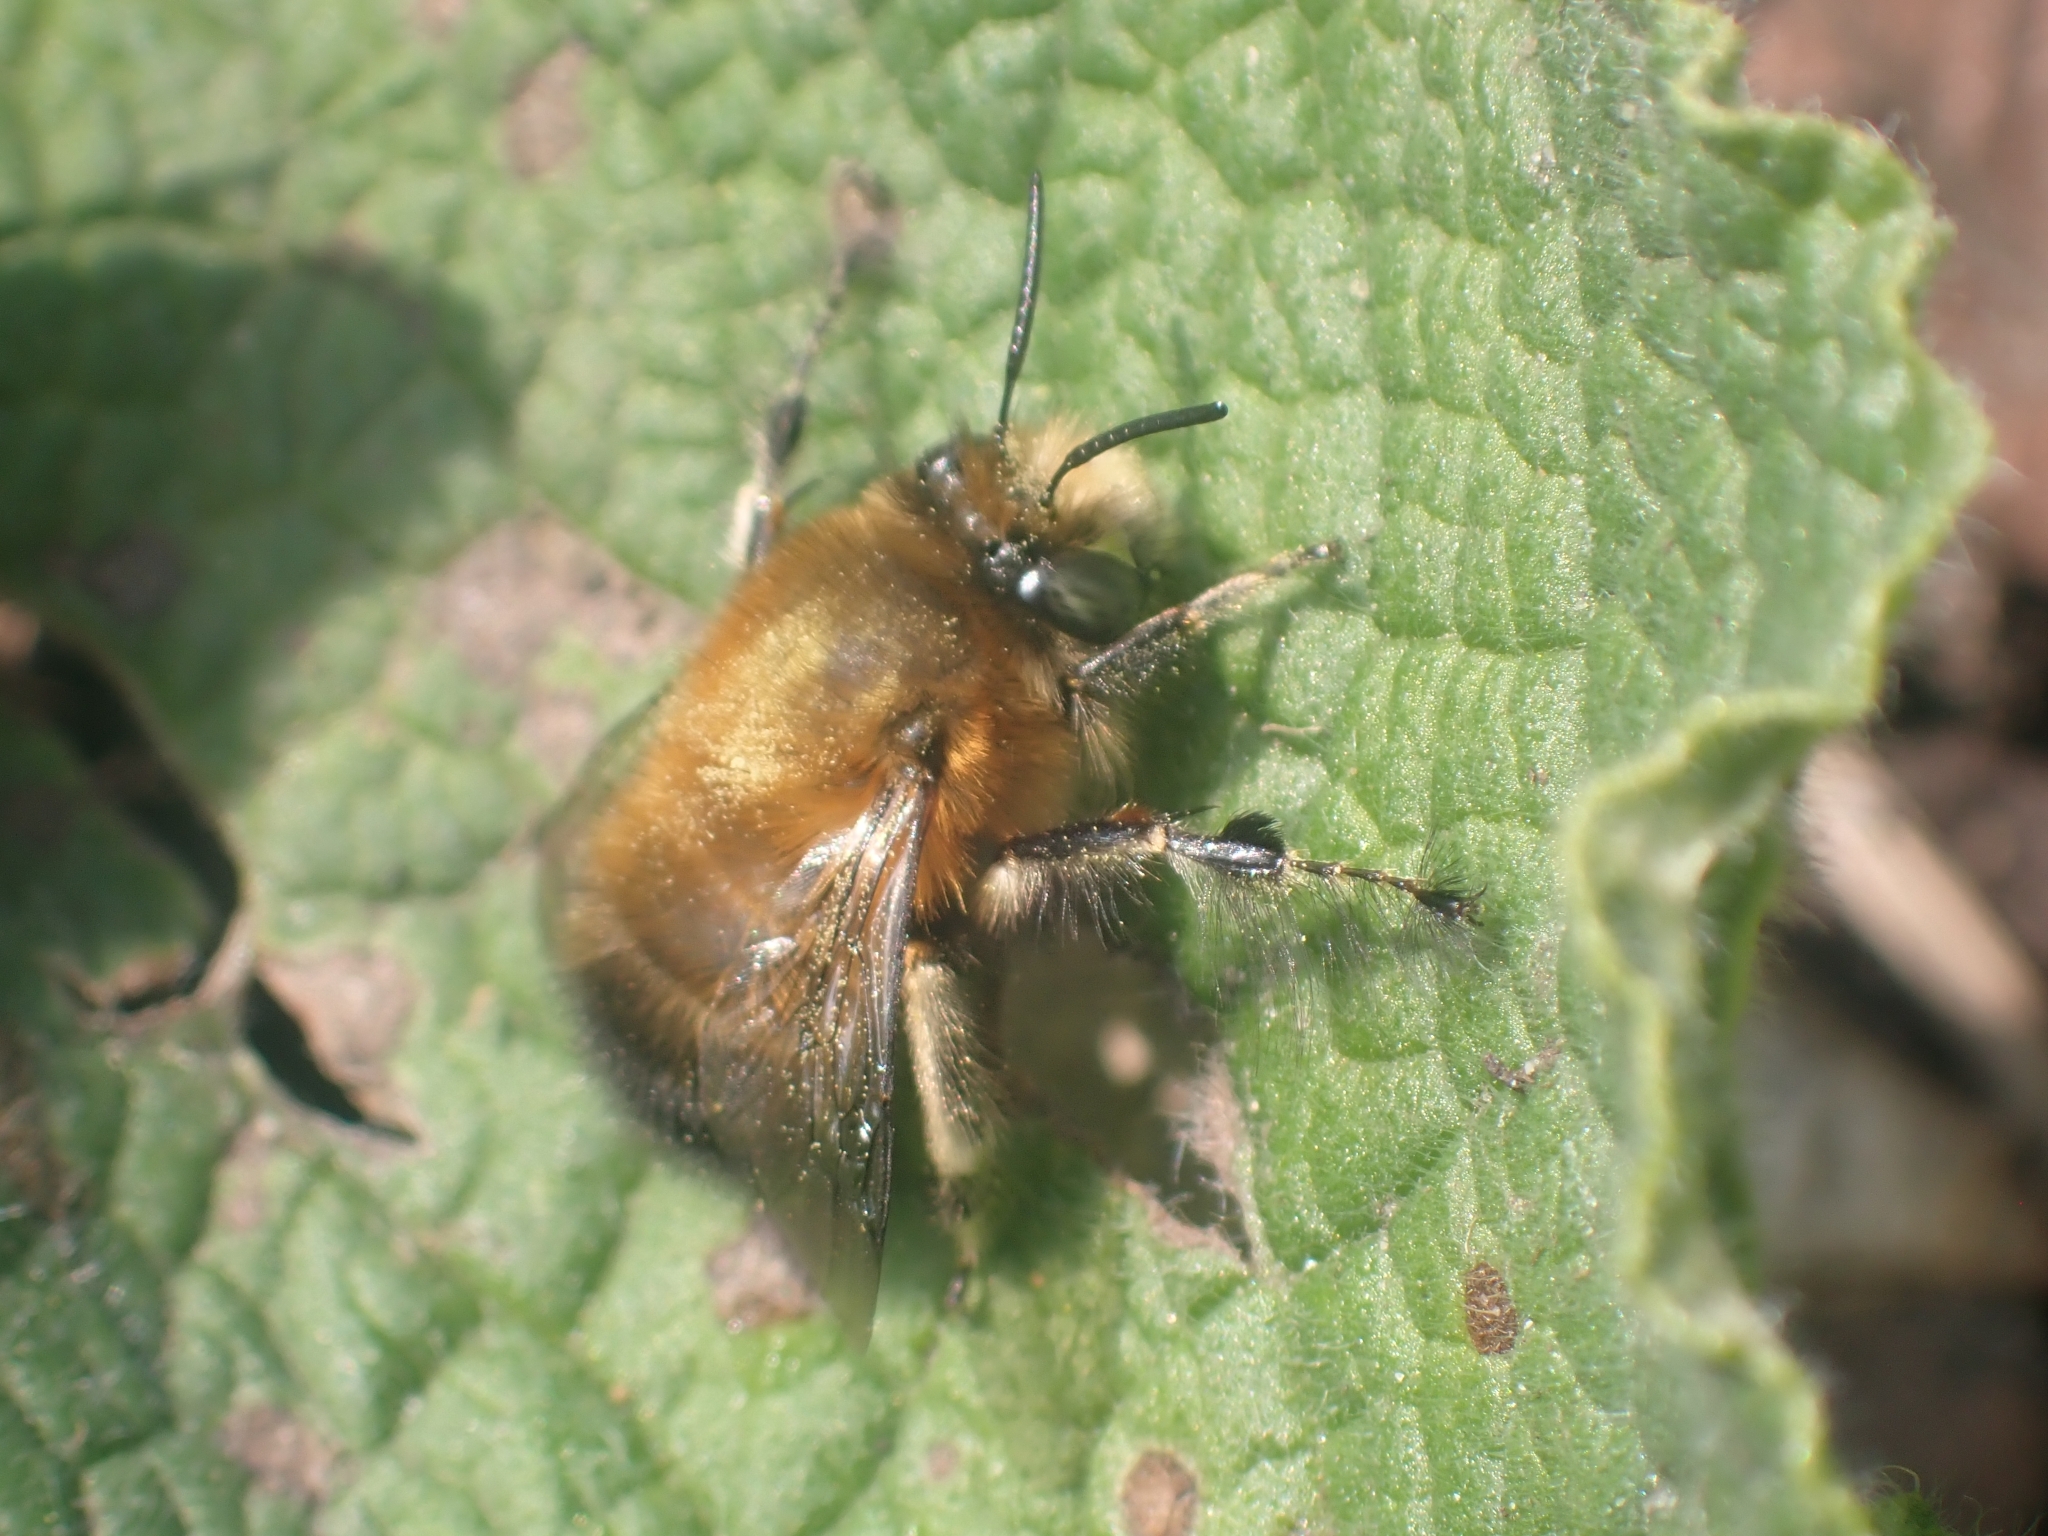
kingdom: Animalia
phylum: Arthropoda
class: Insecta
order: Hymenoptera
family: Apidae
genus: Anthophora
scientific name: Anthophora plumipes
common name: Hairy-footed flower bee
